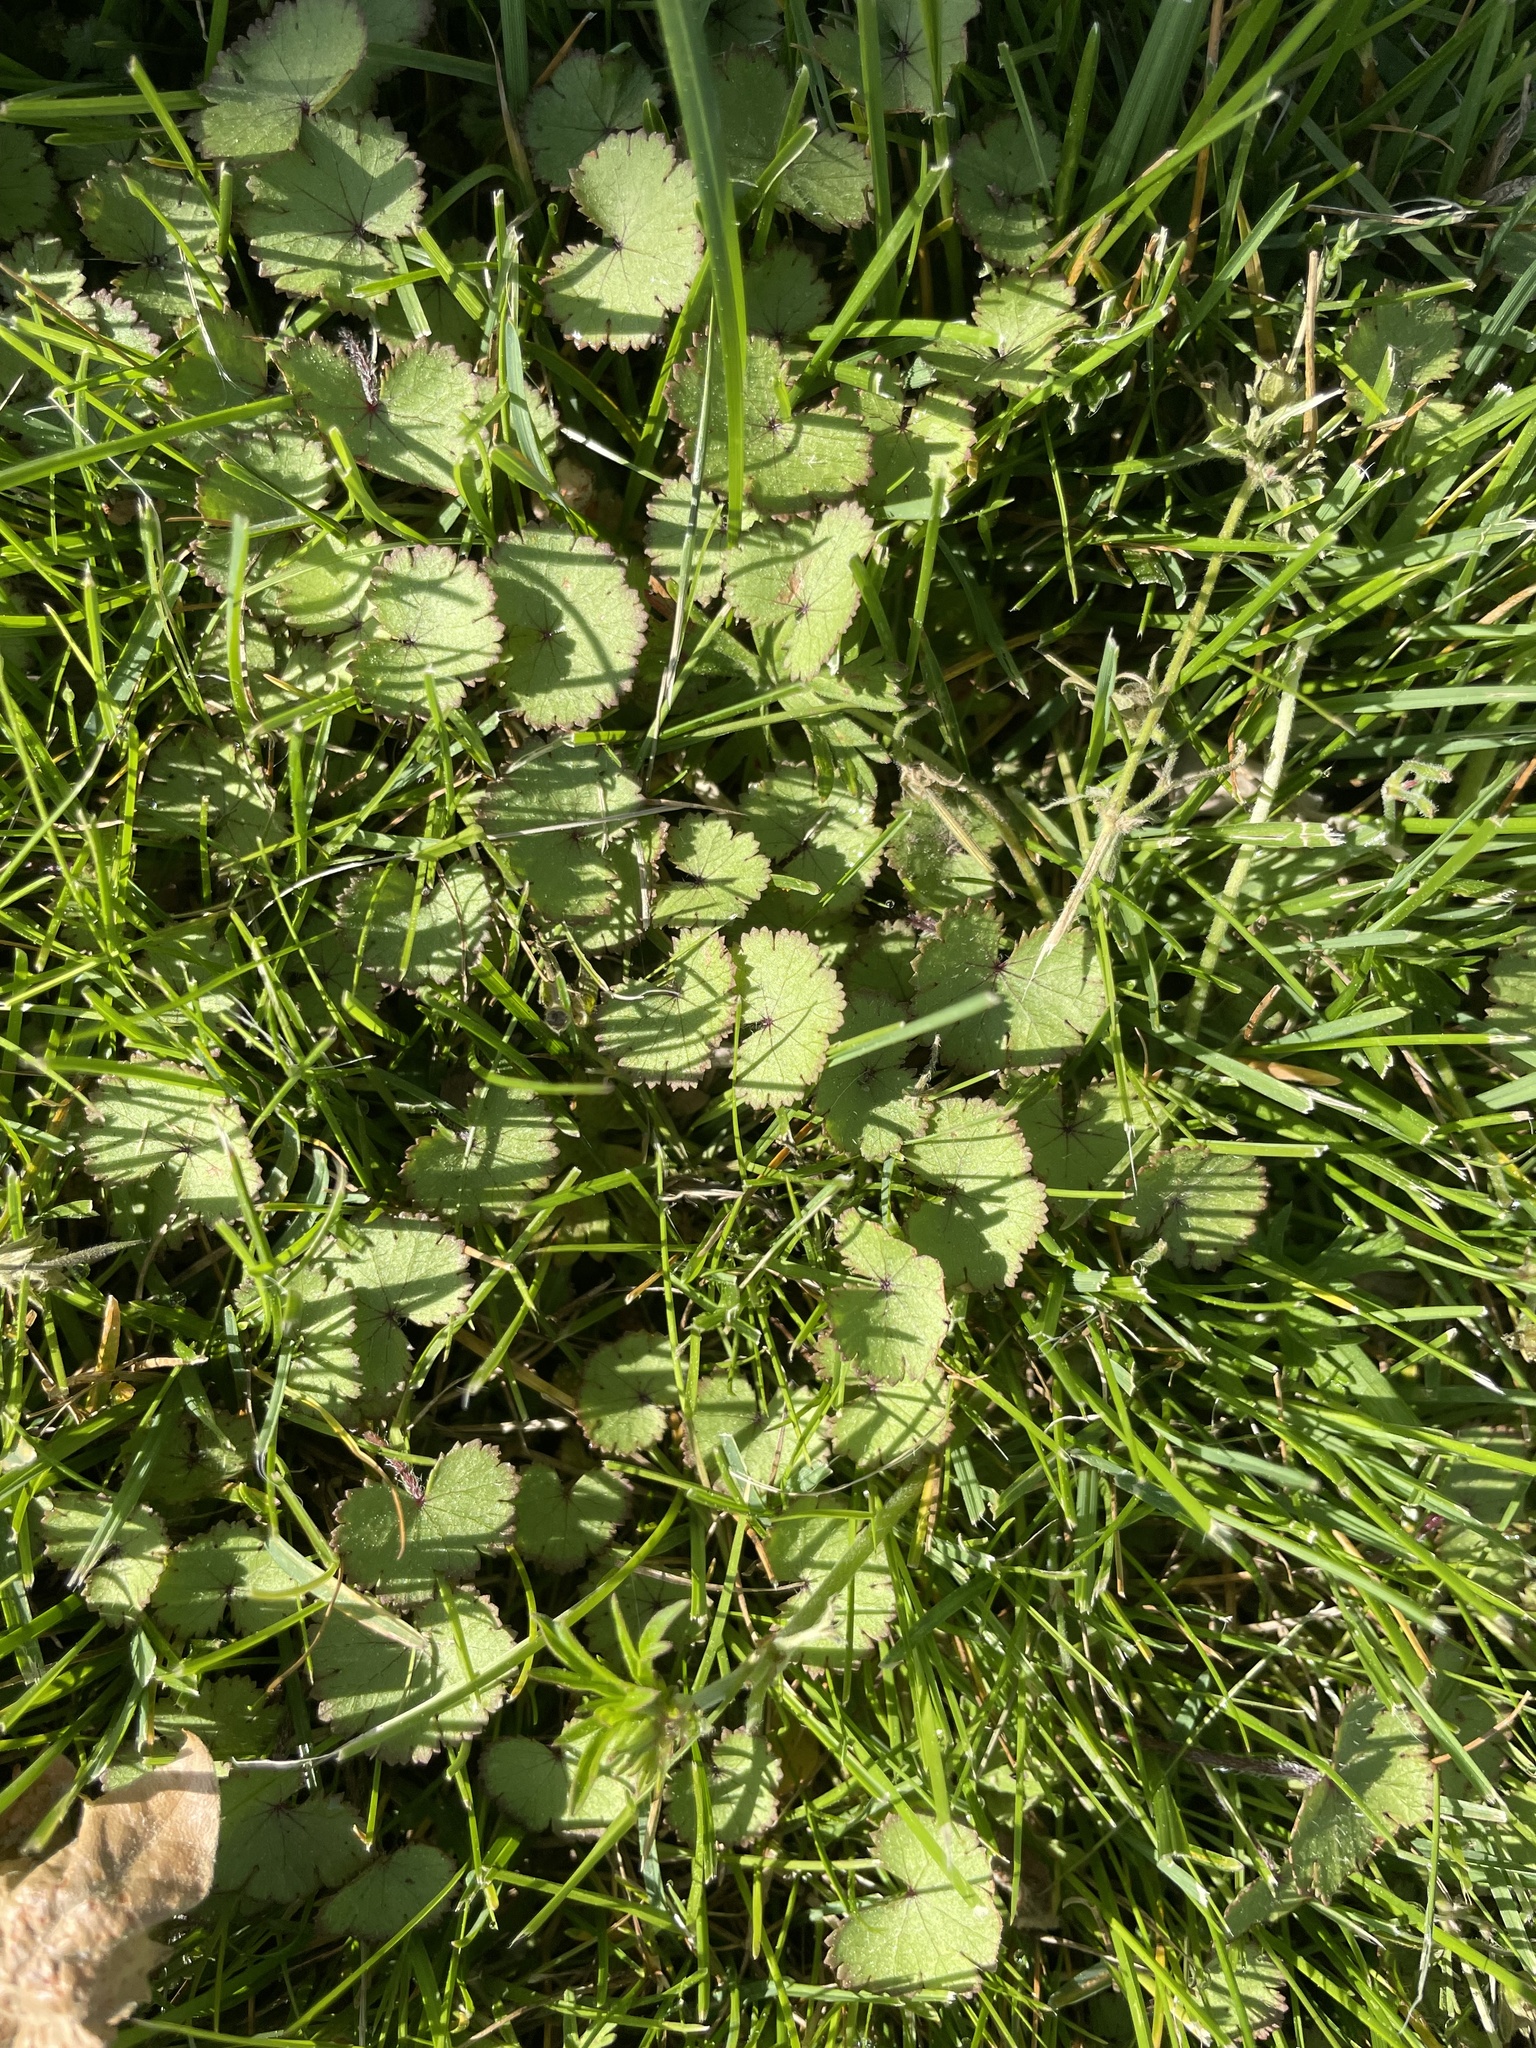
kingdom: Plantae
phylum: Tracheophyta
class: Magnoliopsida
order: Apiales
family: Araliaceae
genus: Hydrocotyle
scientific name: Hydrocotyle moschata
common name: Hairy pennywort
